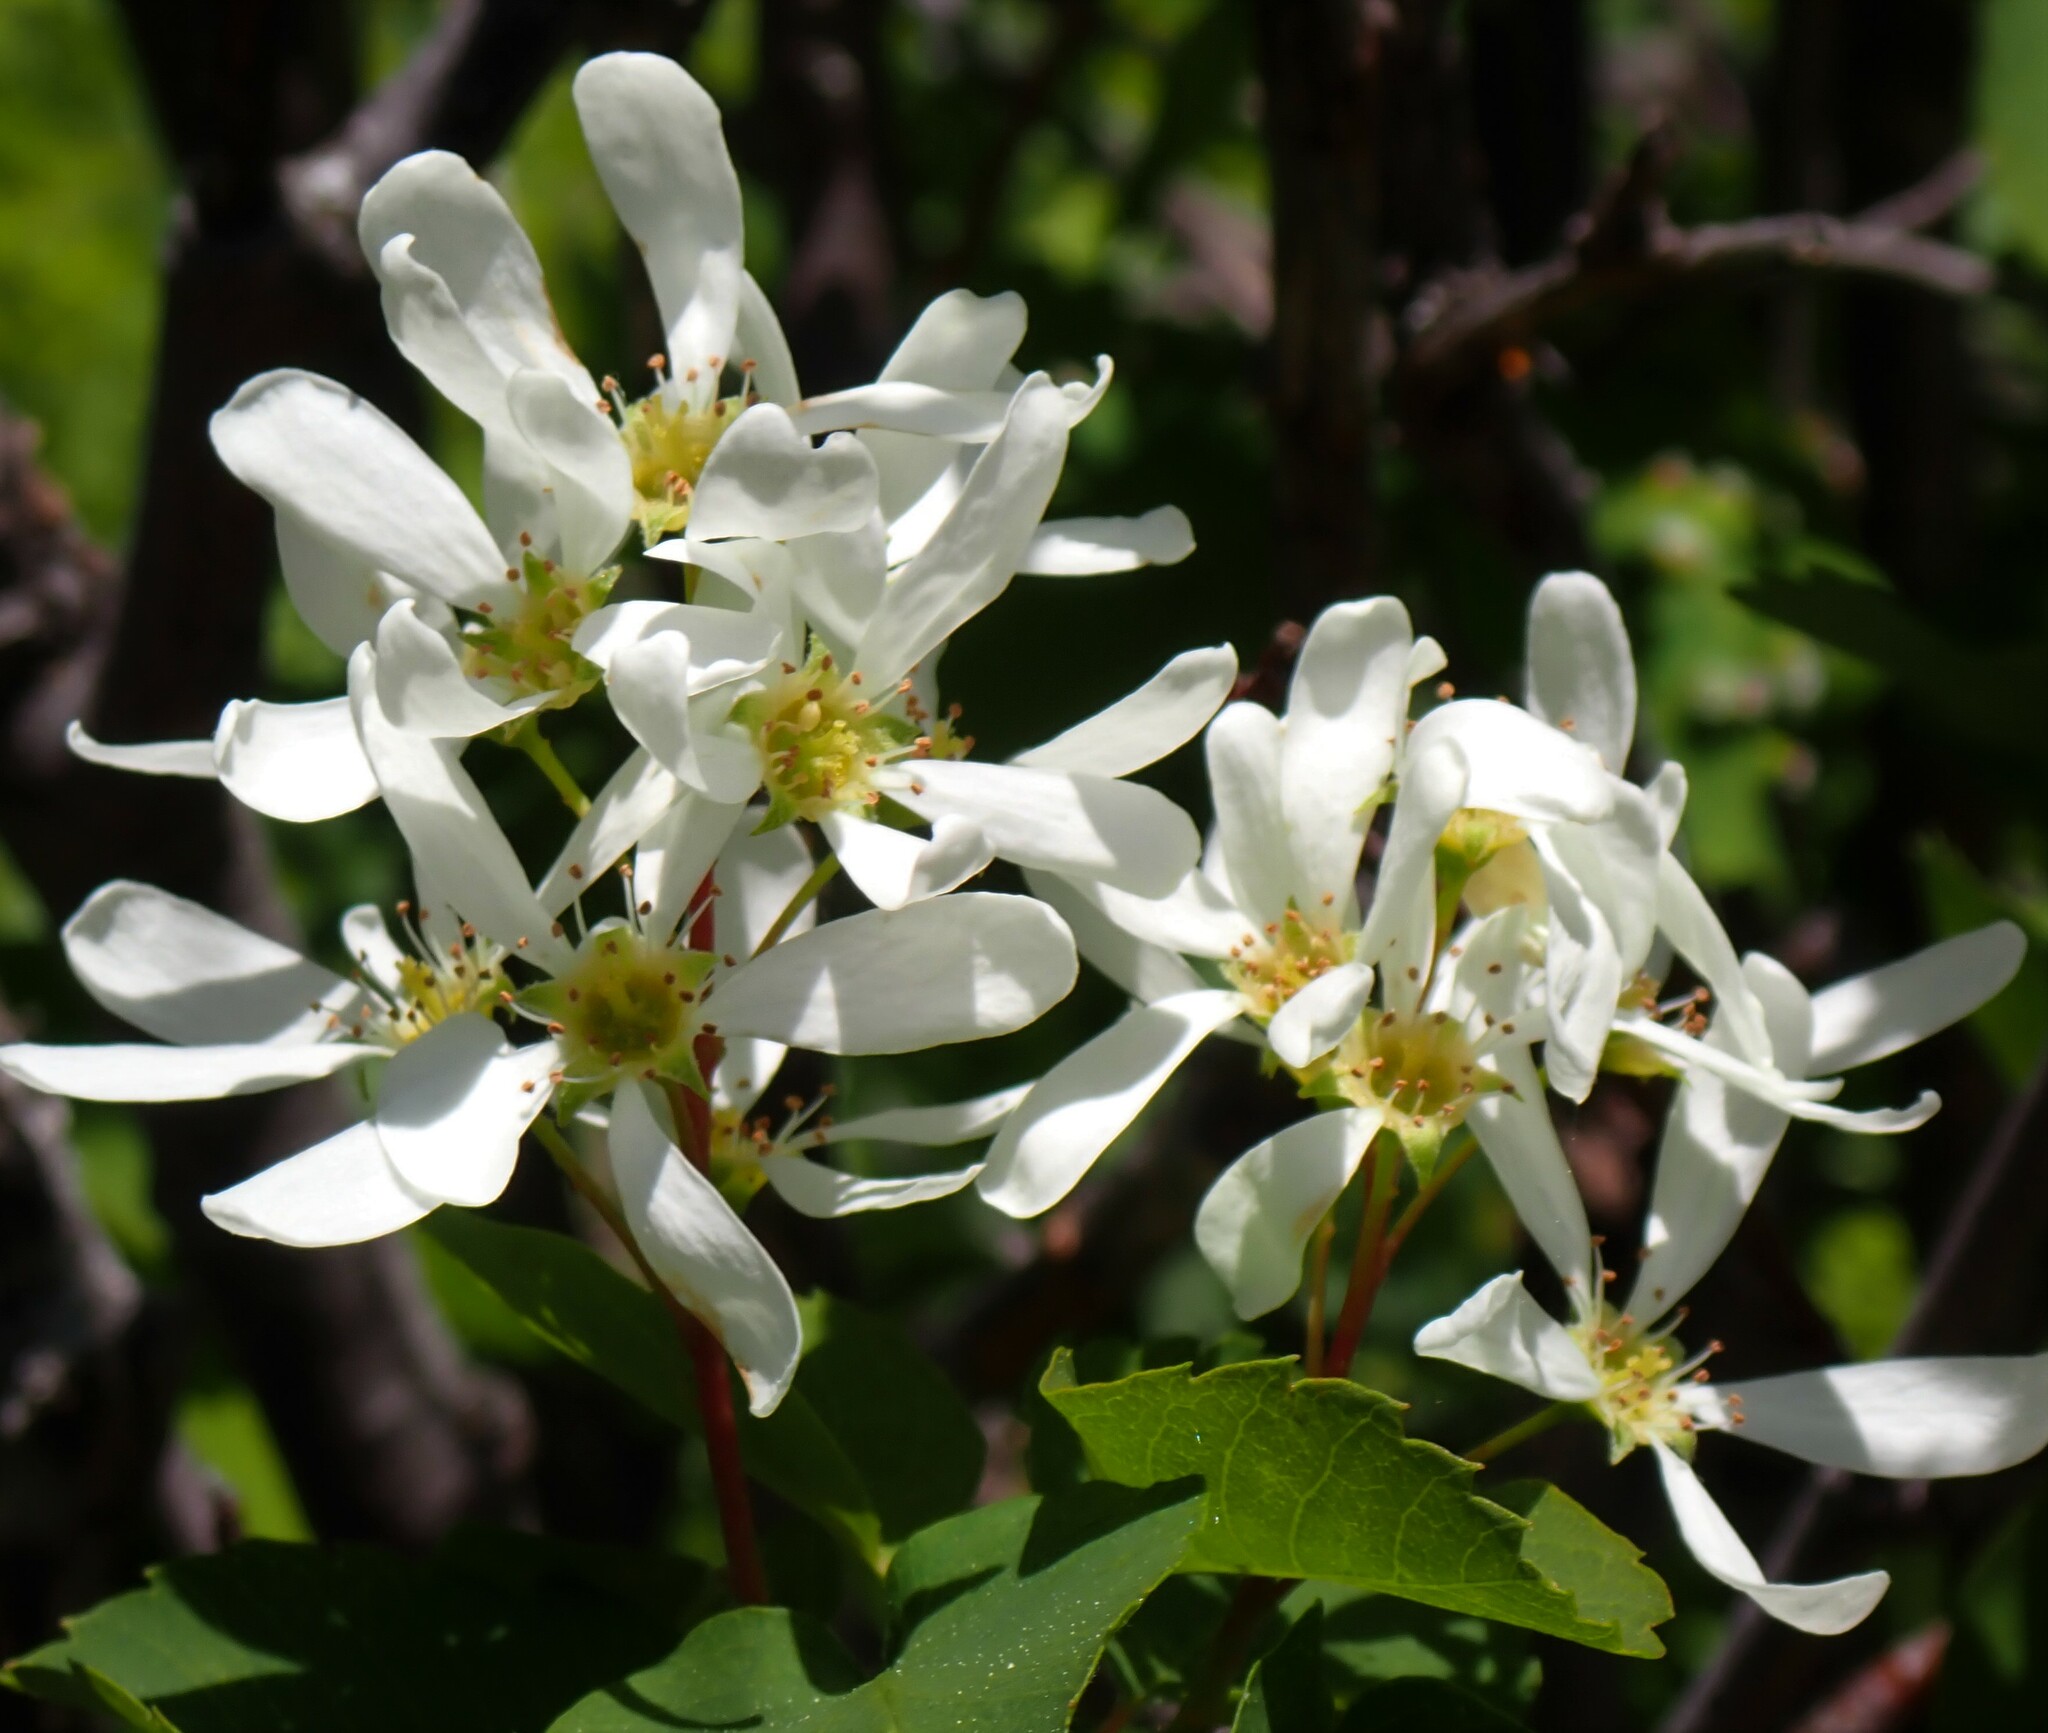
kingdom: Plantae
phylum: Tracheophyta
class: Magnoliopsida
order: Rosales
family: Rosaceae
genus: Amelanchier
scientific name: Amelanchier alnifolia
